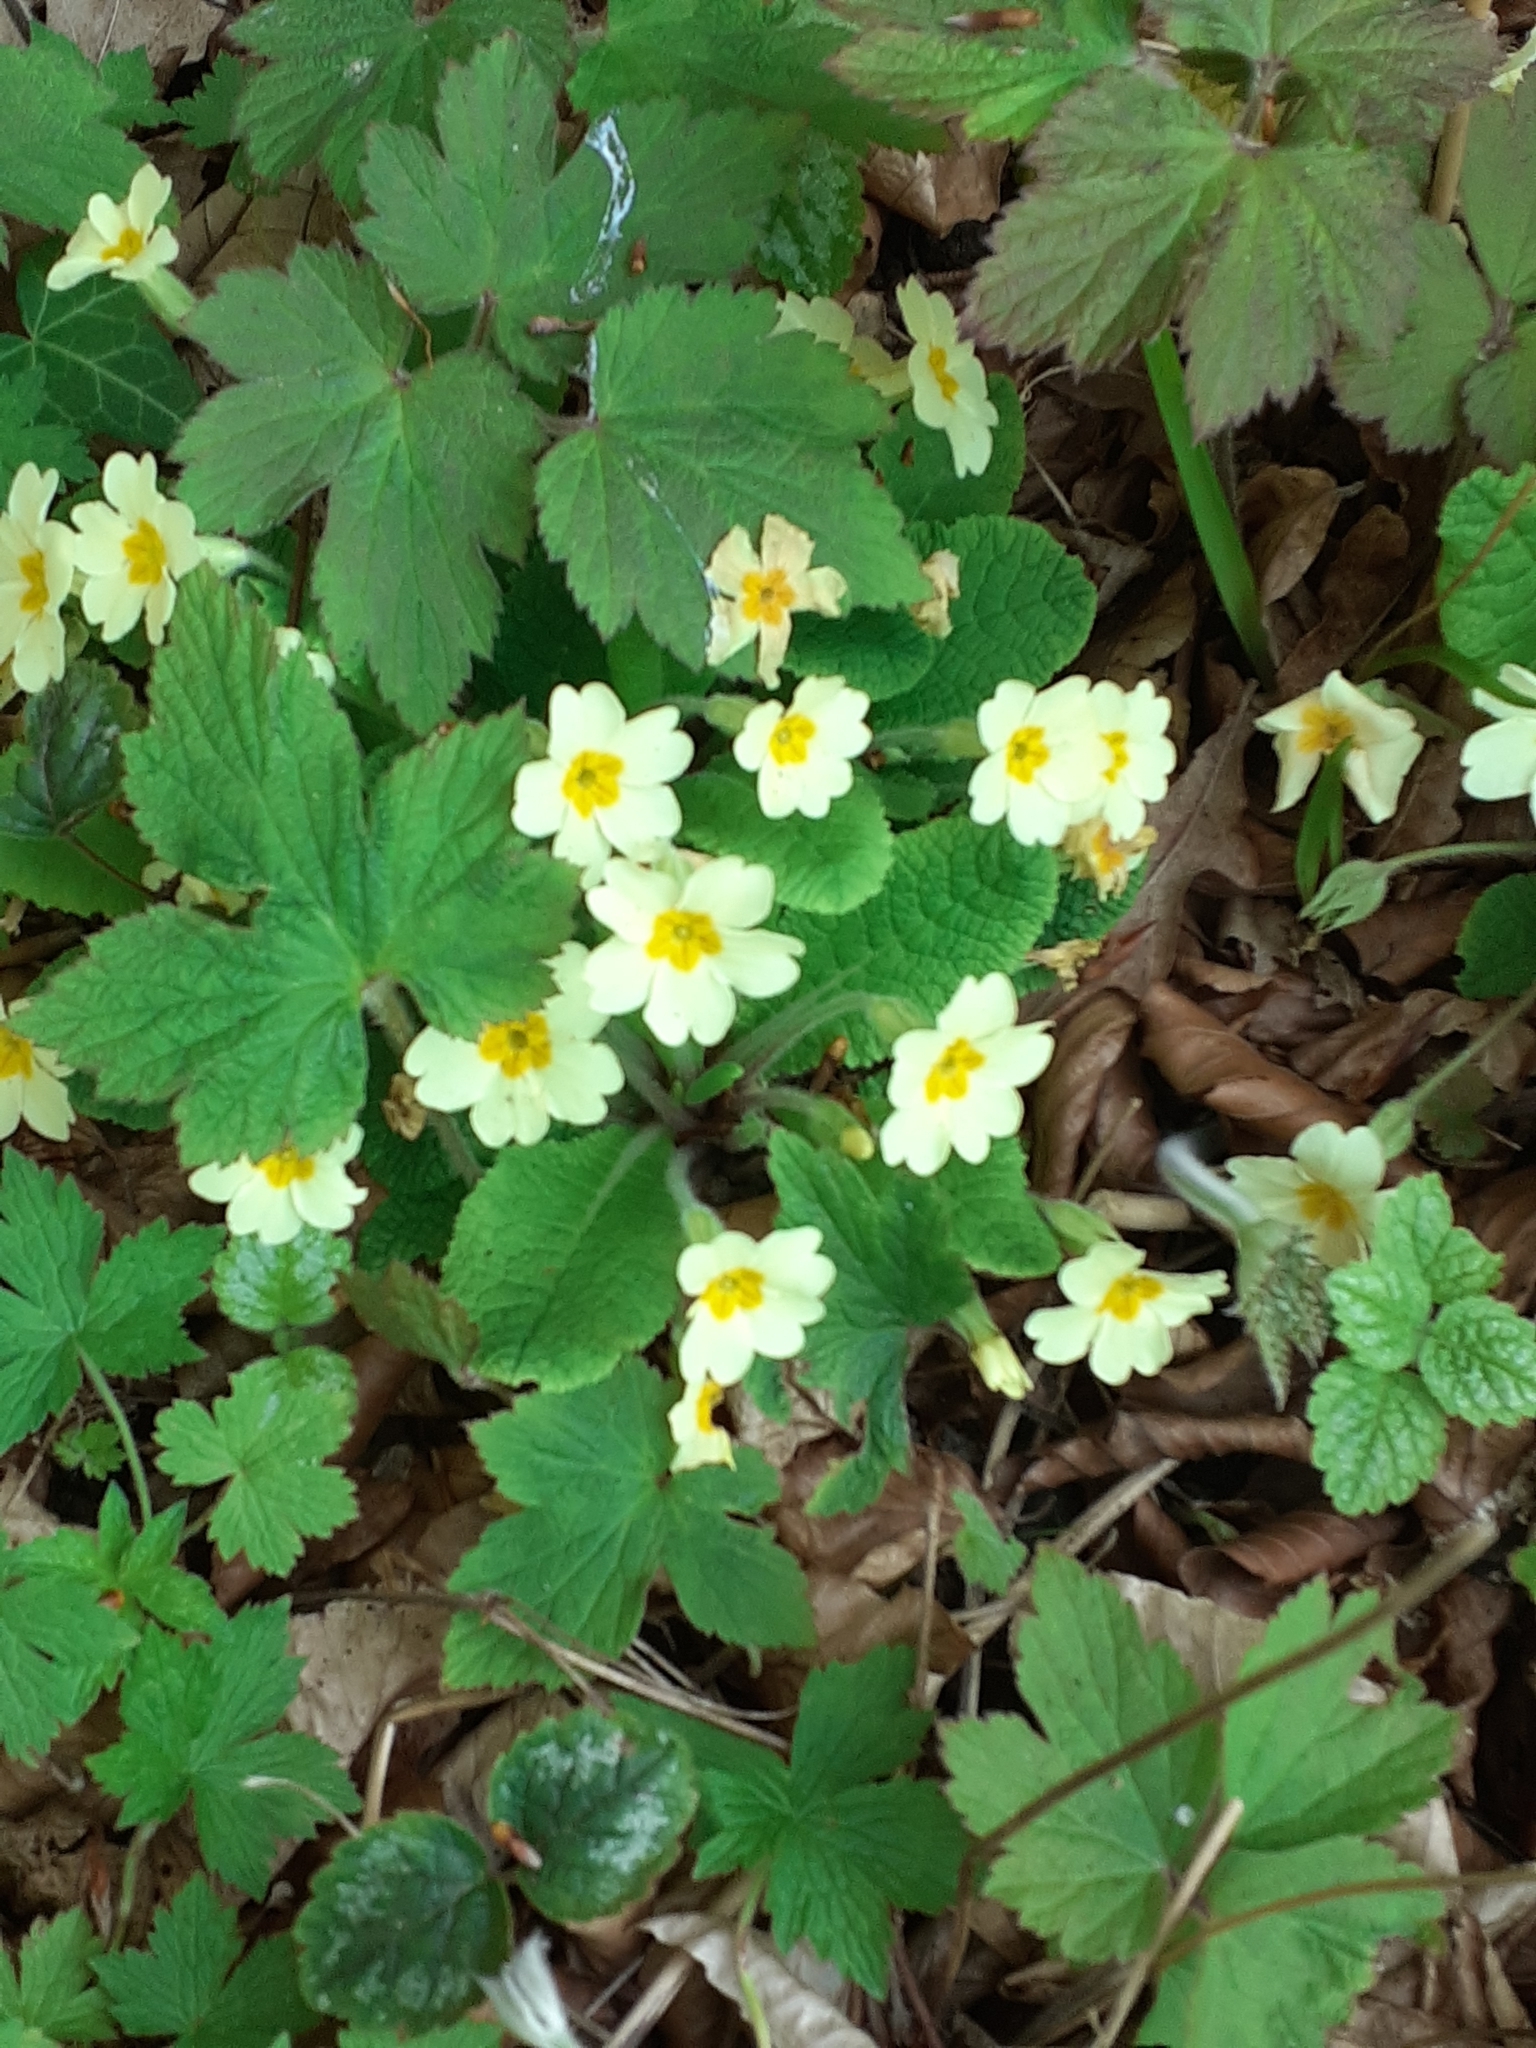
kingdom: Plantae
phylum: Tracheophyta
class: Magnoliopsida
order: Ericales
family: Primulaceae
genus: Primula
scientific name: Primula vulgaris
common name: Primrose
